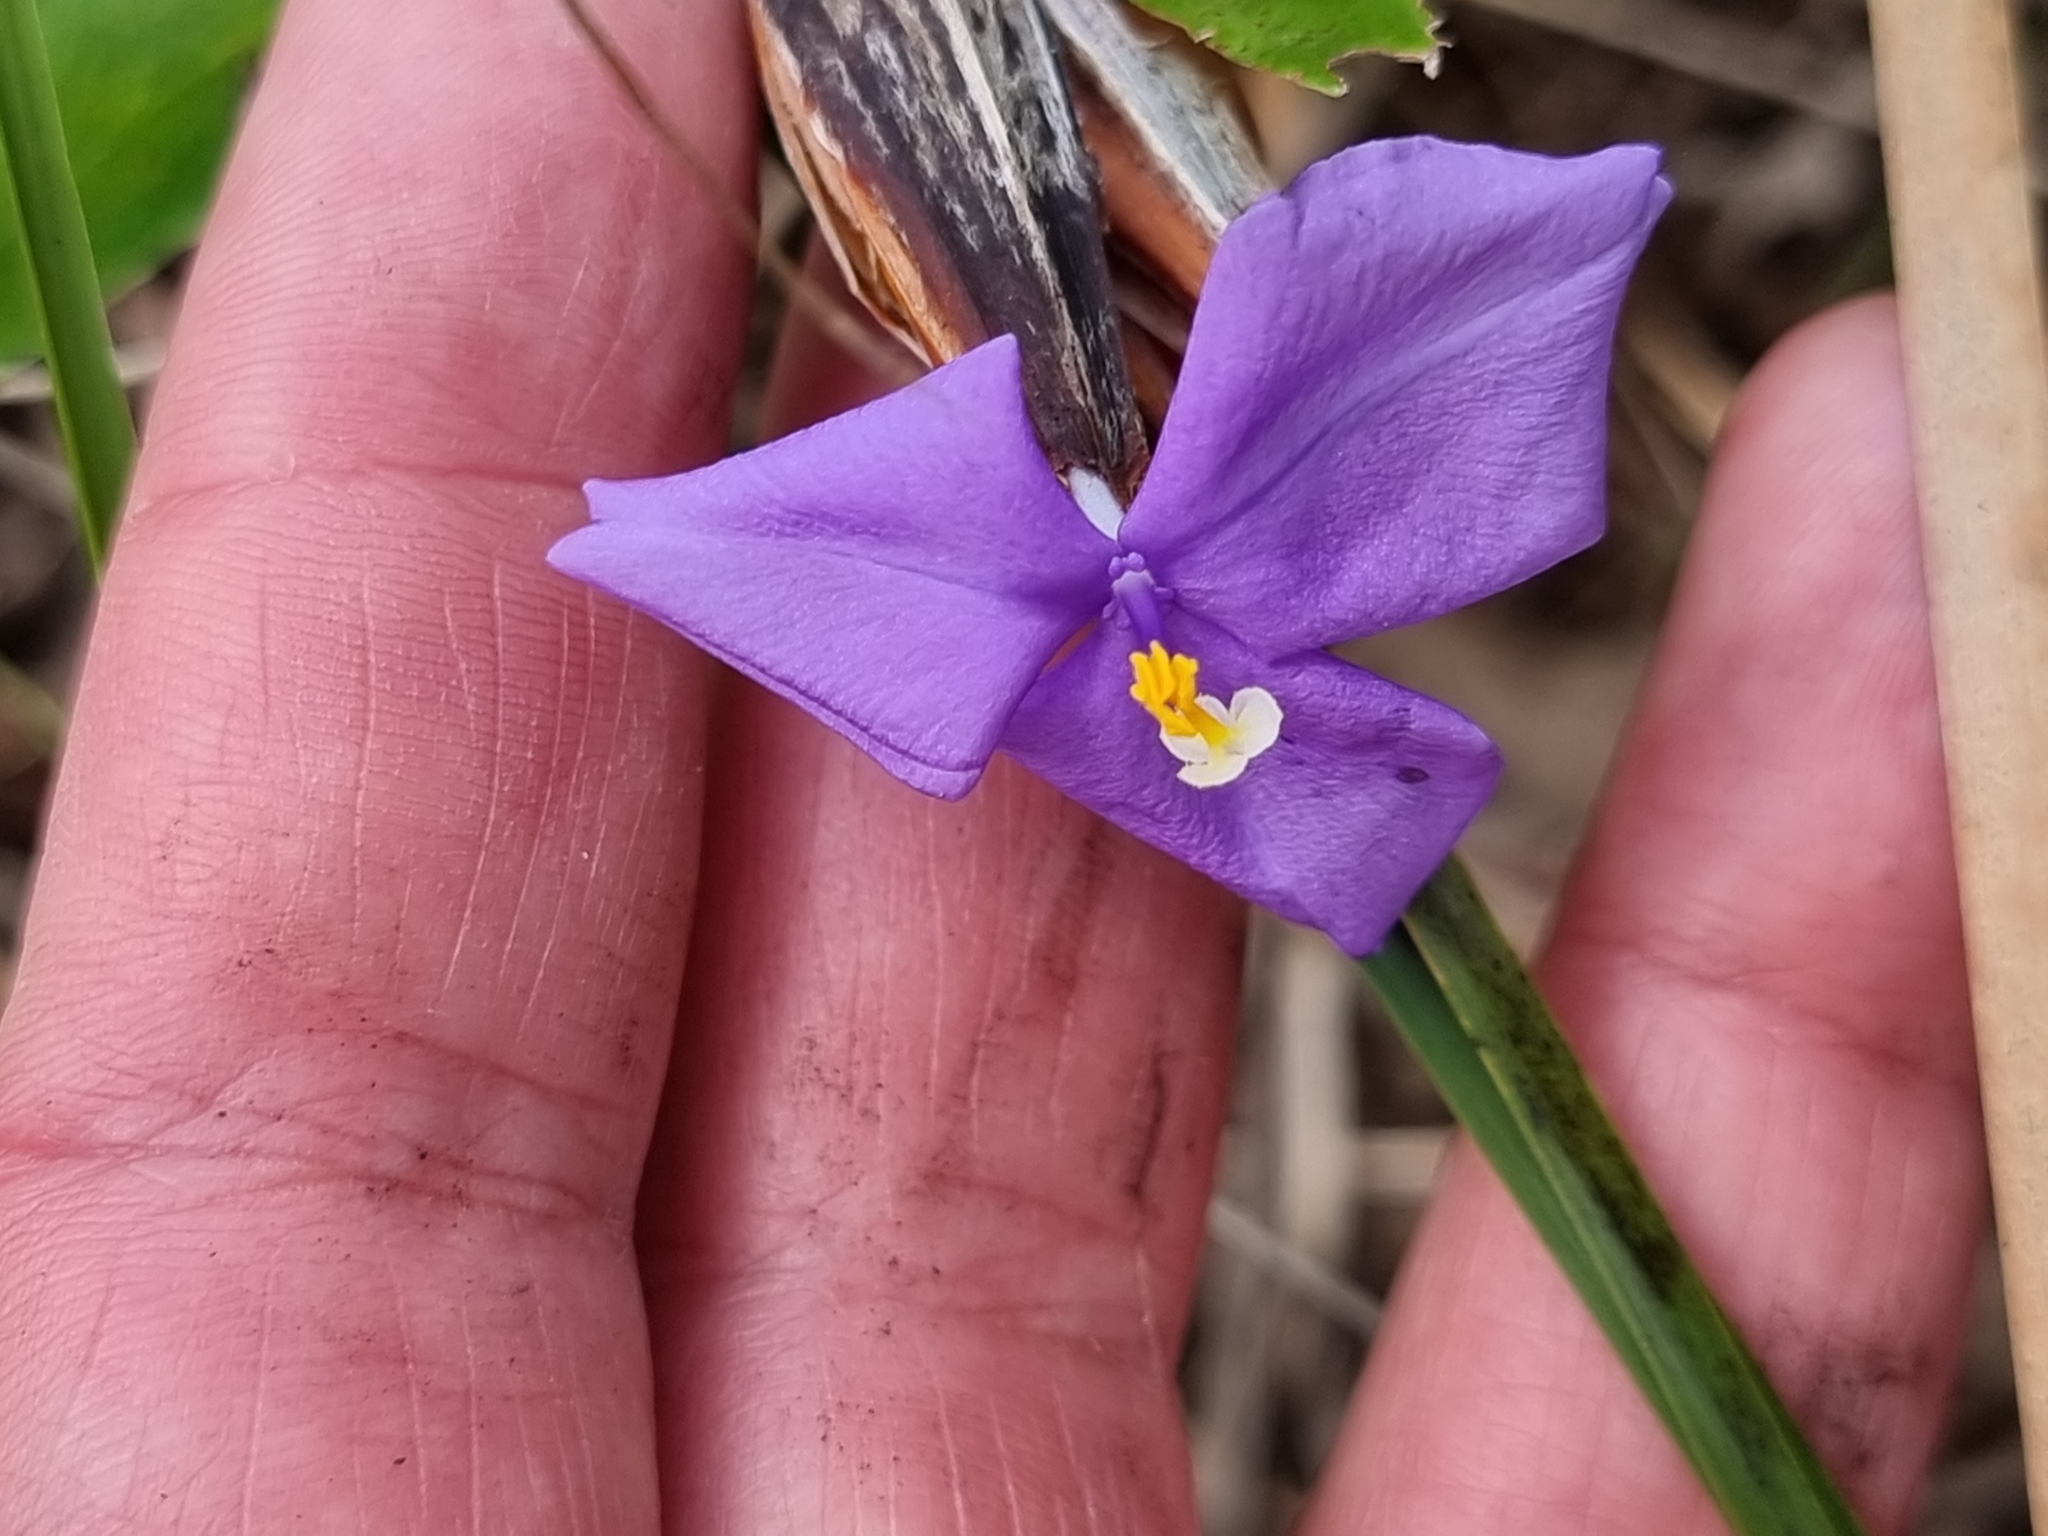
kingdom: Plantae
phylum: Tracheophyta
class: Liliopsida
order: Asparagales
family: Iridaceae
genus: Patersonia
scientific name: Patersonia sericea
